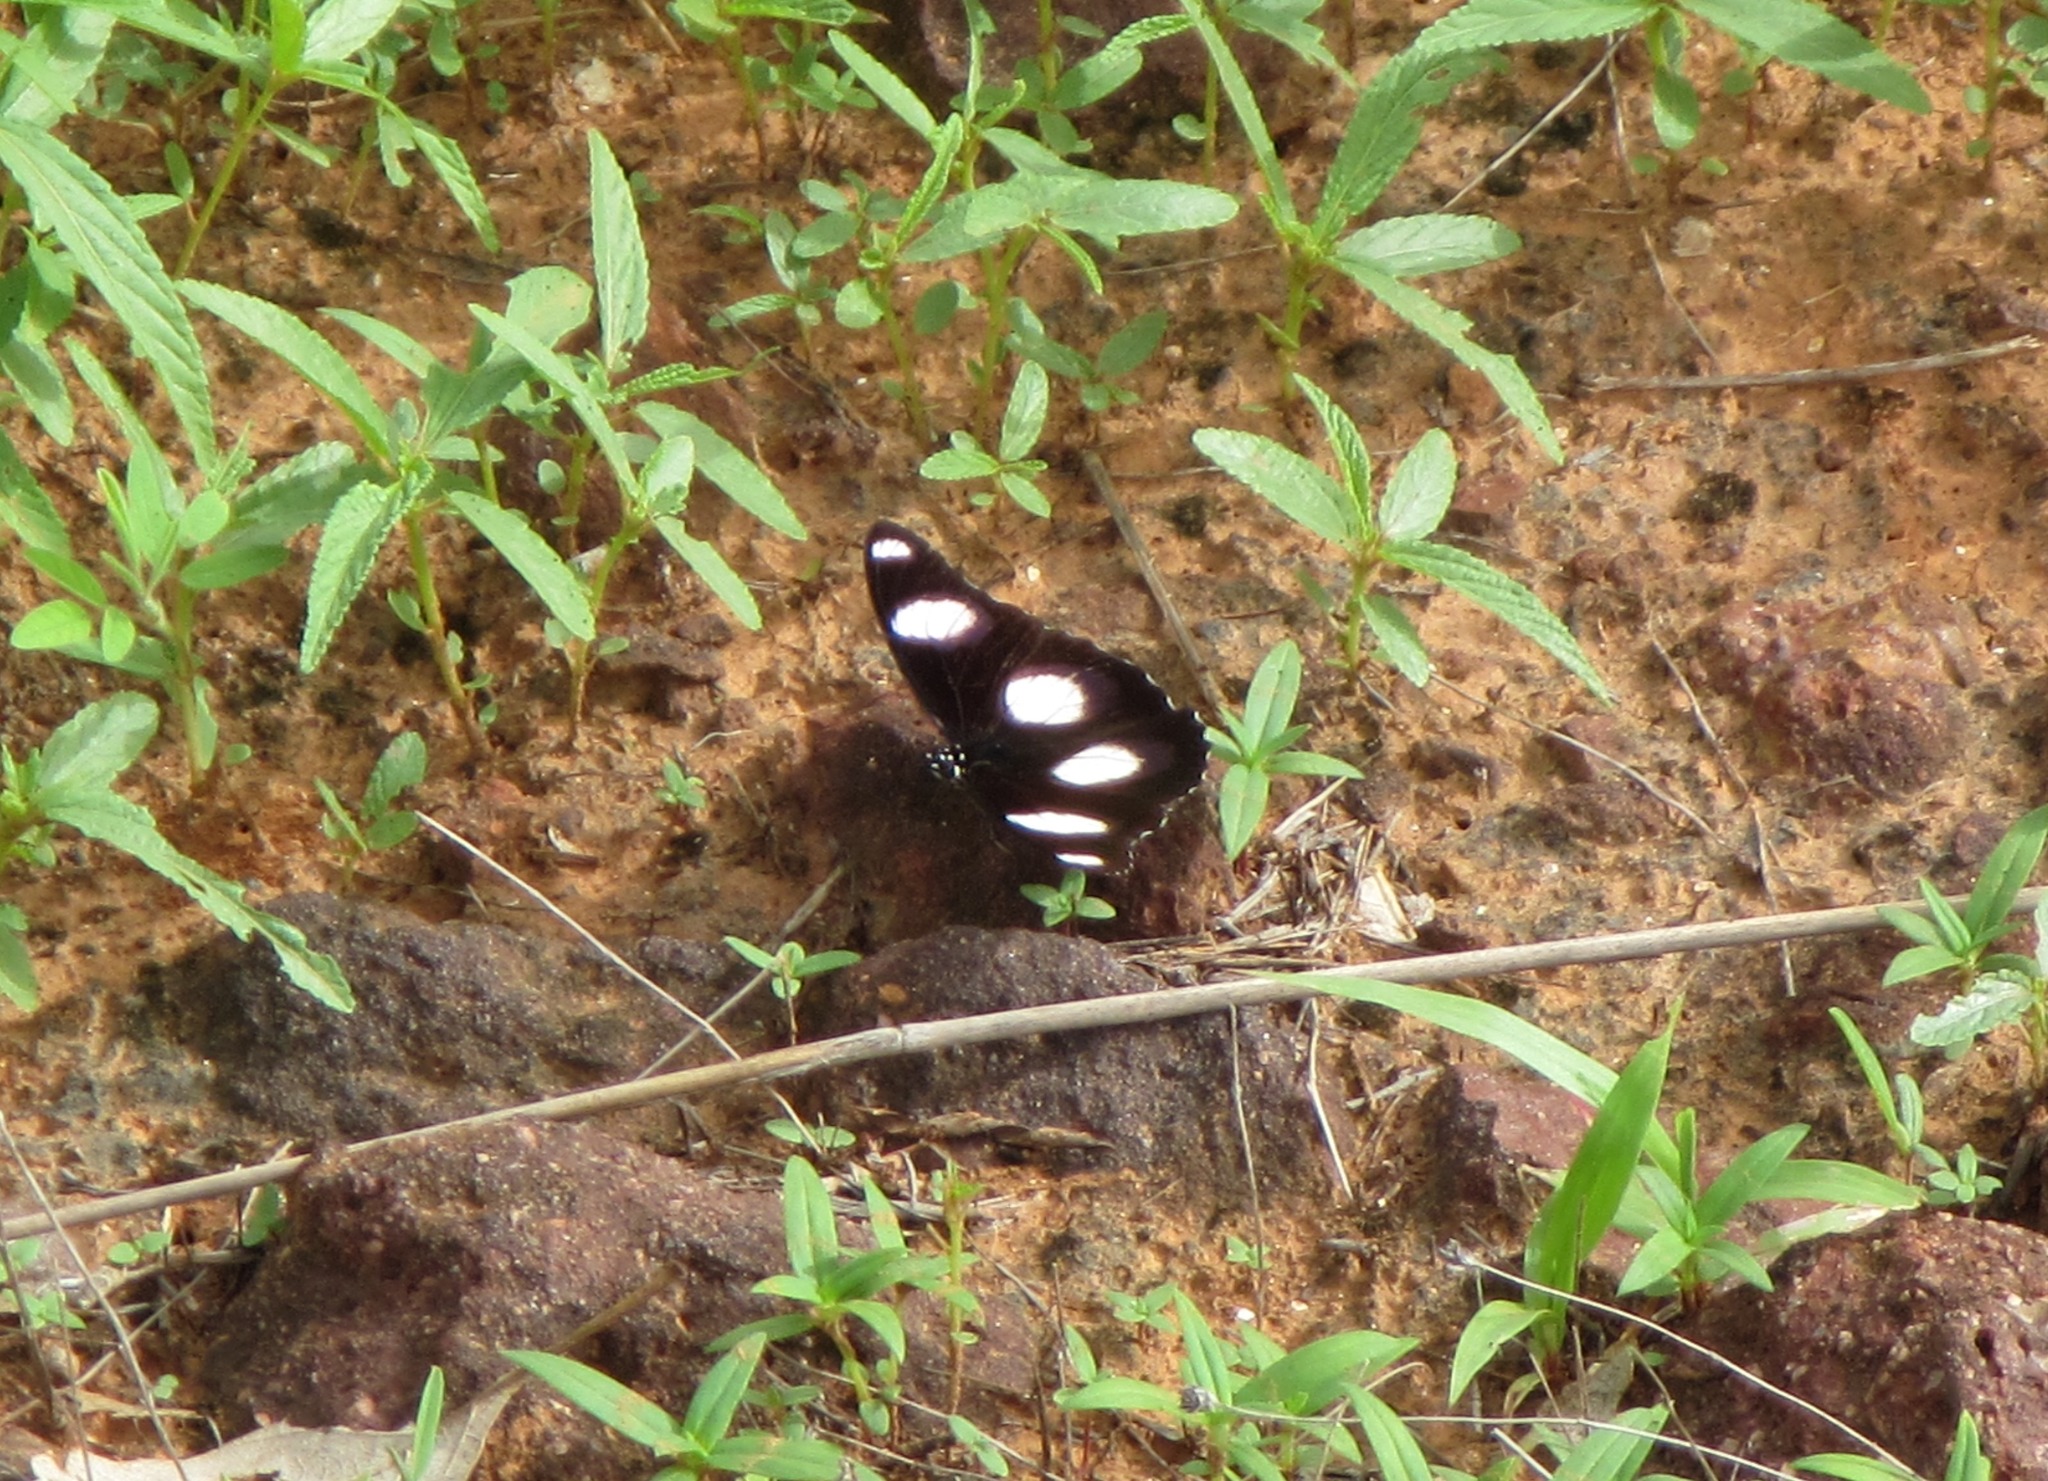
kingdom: Animalia
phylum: Arthropoda
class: Insecta
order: Lepidoptera
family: Nymphalidae
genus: Hypolimnas
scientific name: Hypolimnas misippus
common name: False plain tiger
